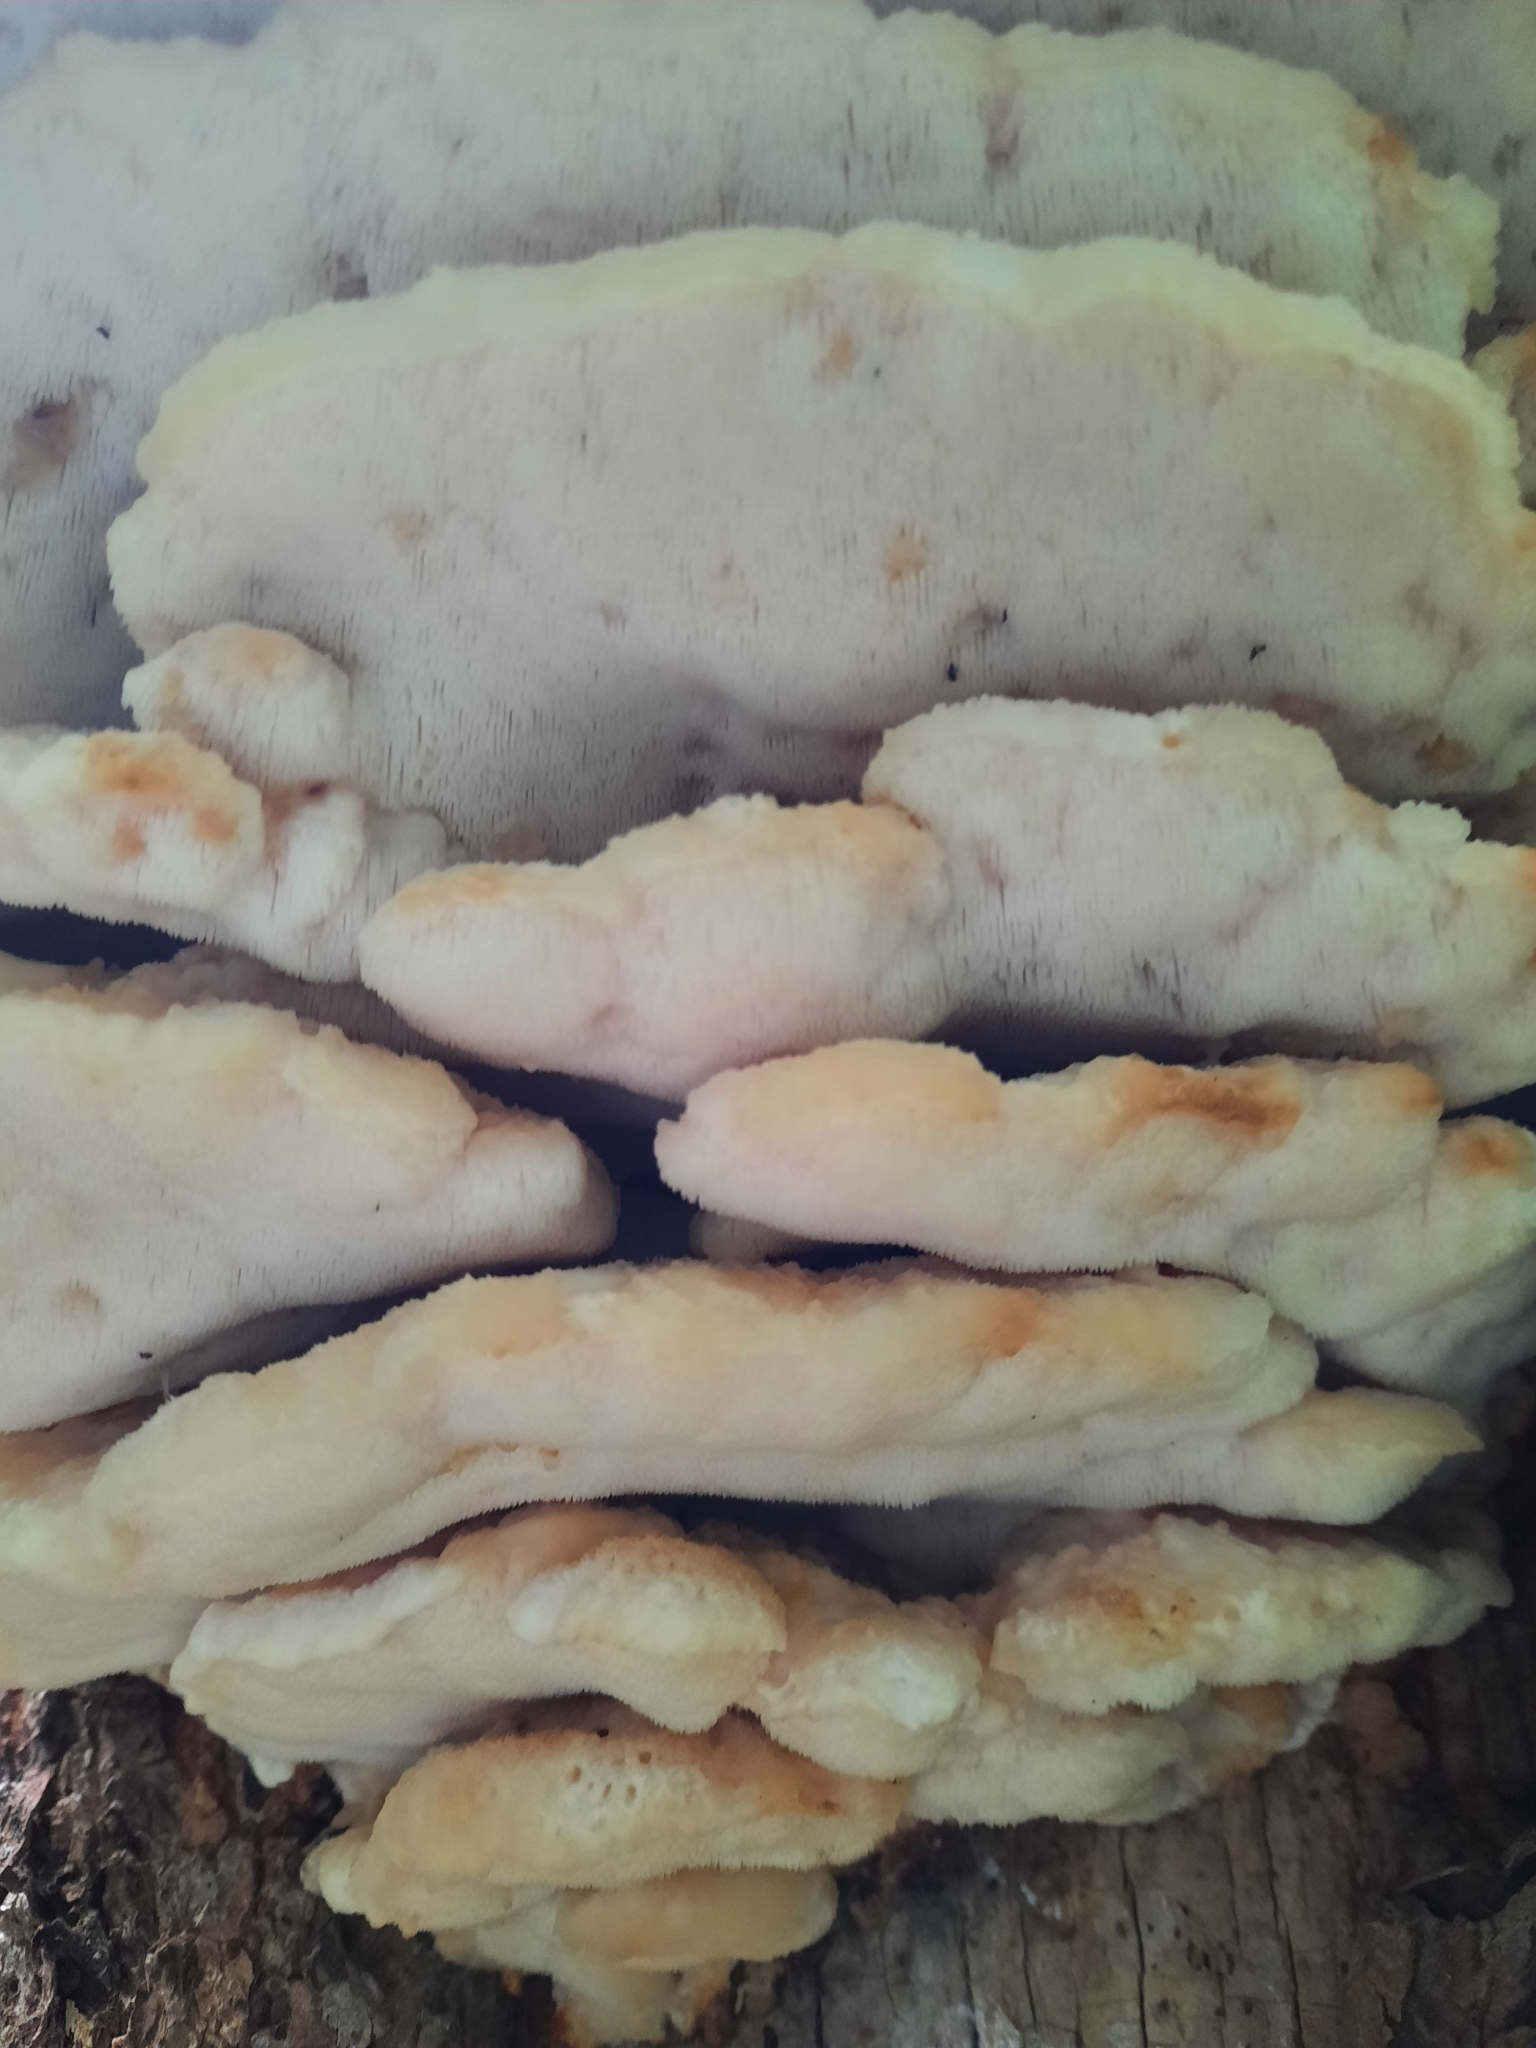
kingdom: Fungi
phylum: Basidiomycota
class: Agaricomycetes
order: Polyporales
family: Meruliaceae
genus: Climacodon
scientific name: Climacodon septentrionalis
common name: Northern tooth
